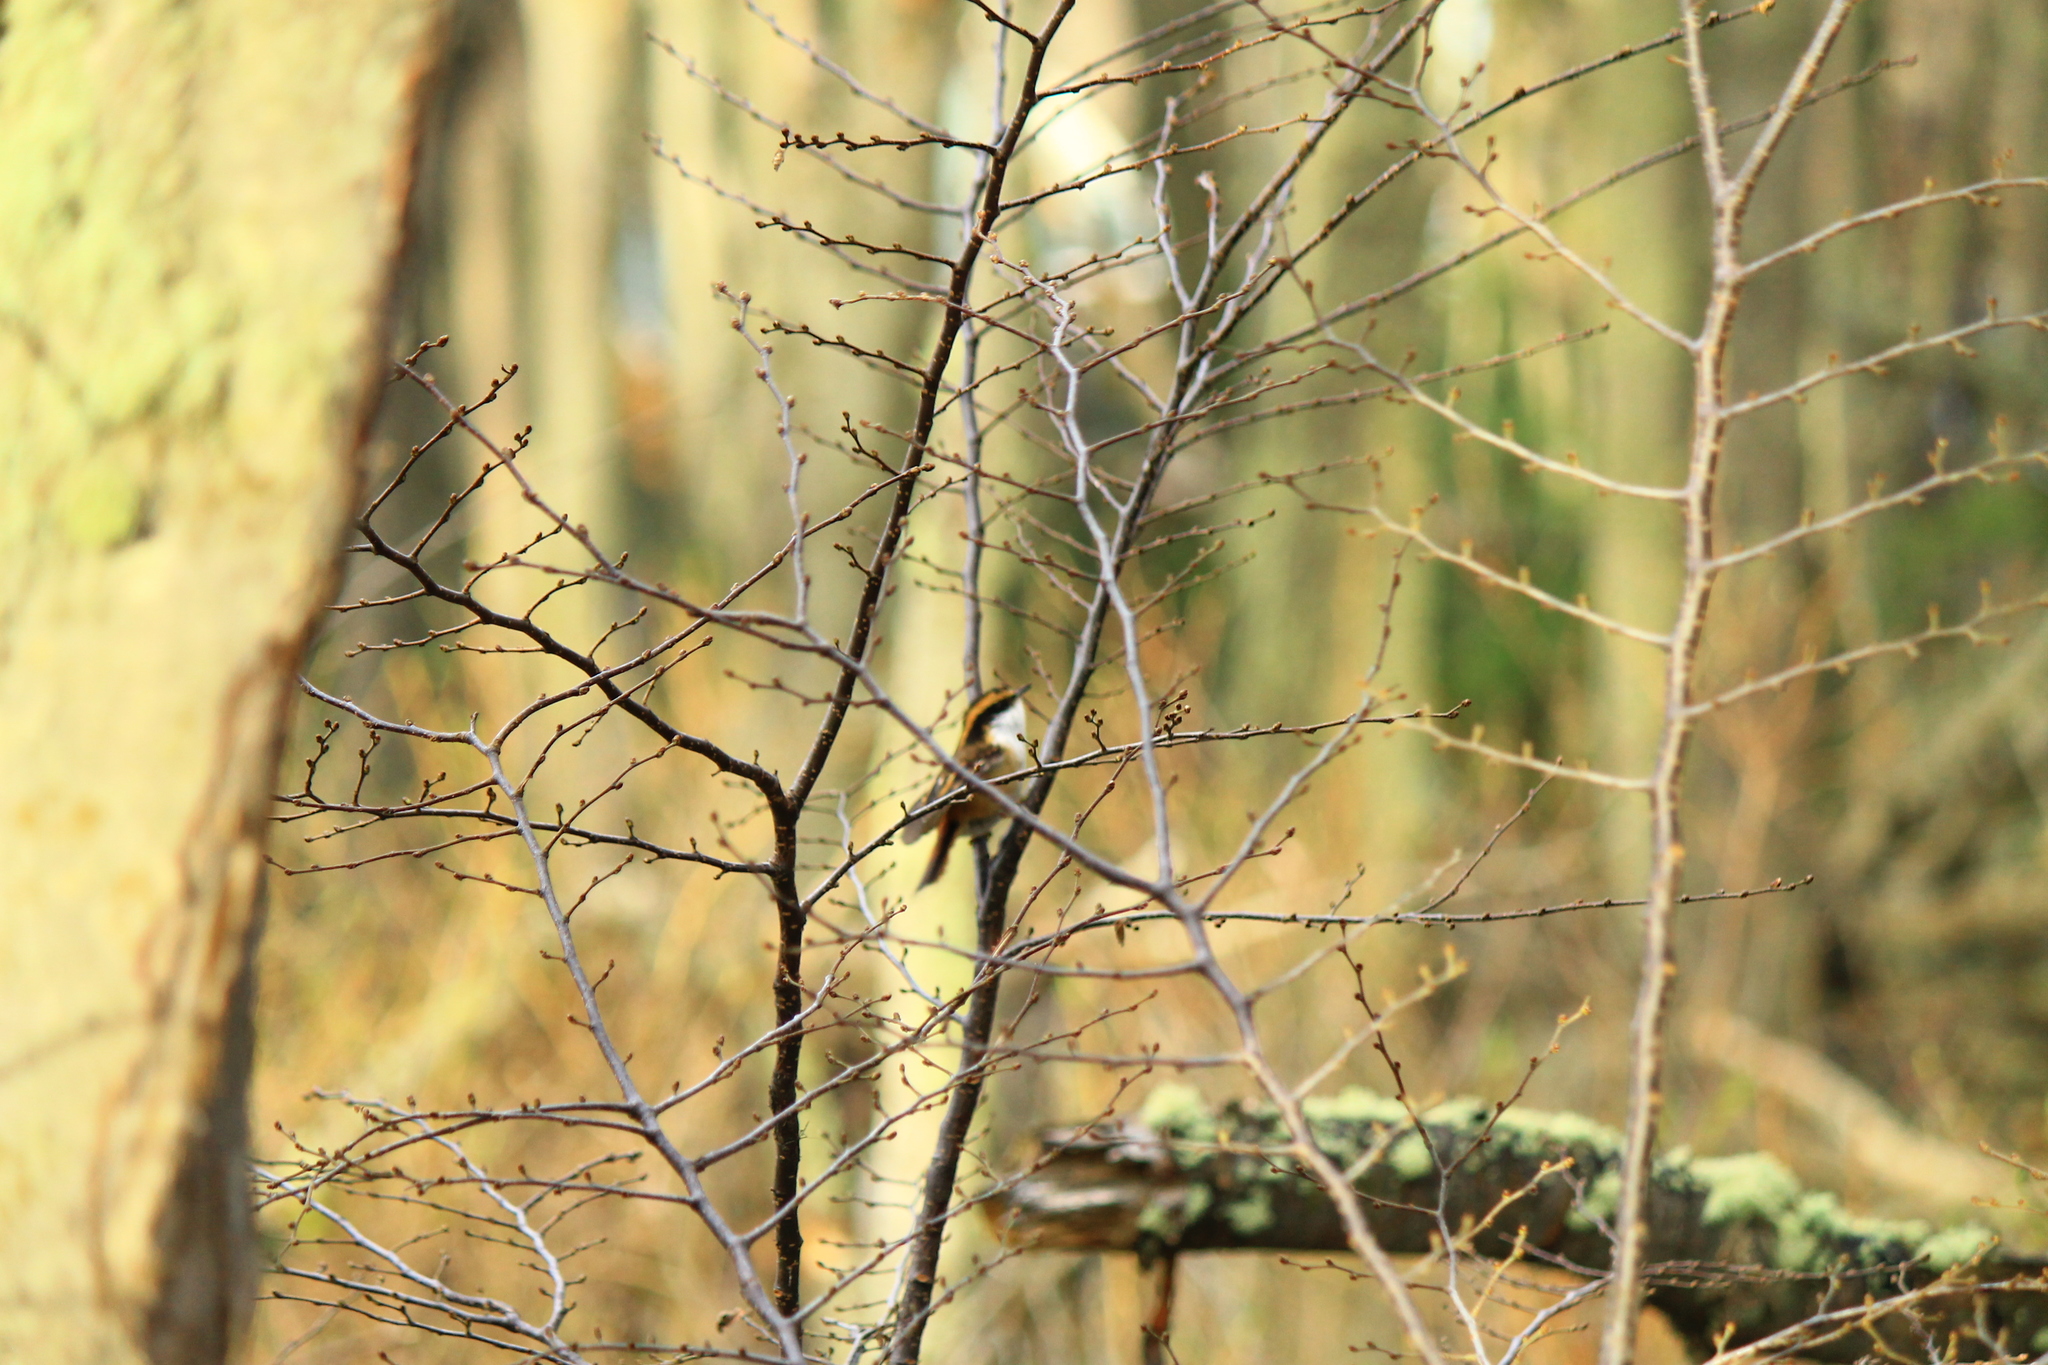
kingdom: Animalia
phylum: Chordata
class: Aves
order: Passeriformes
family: Furnariidae
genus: Aphrastura
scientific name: Aphrastura spinicauda
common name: Thorn-tailed rayadito
